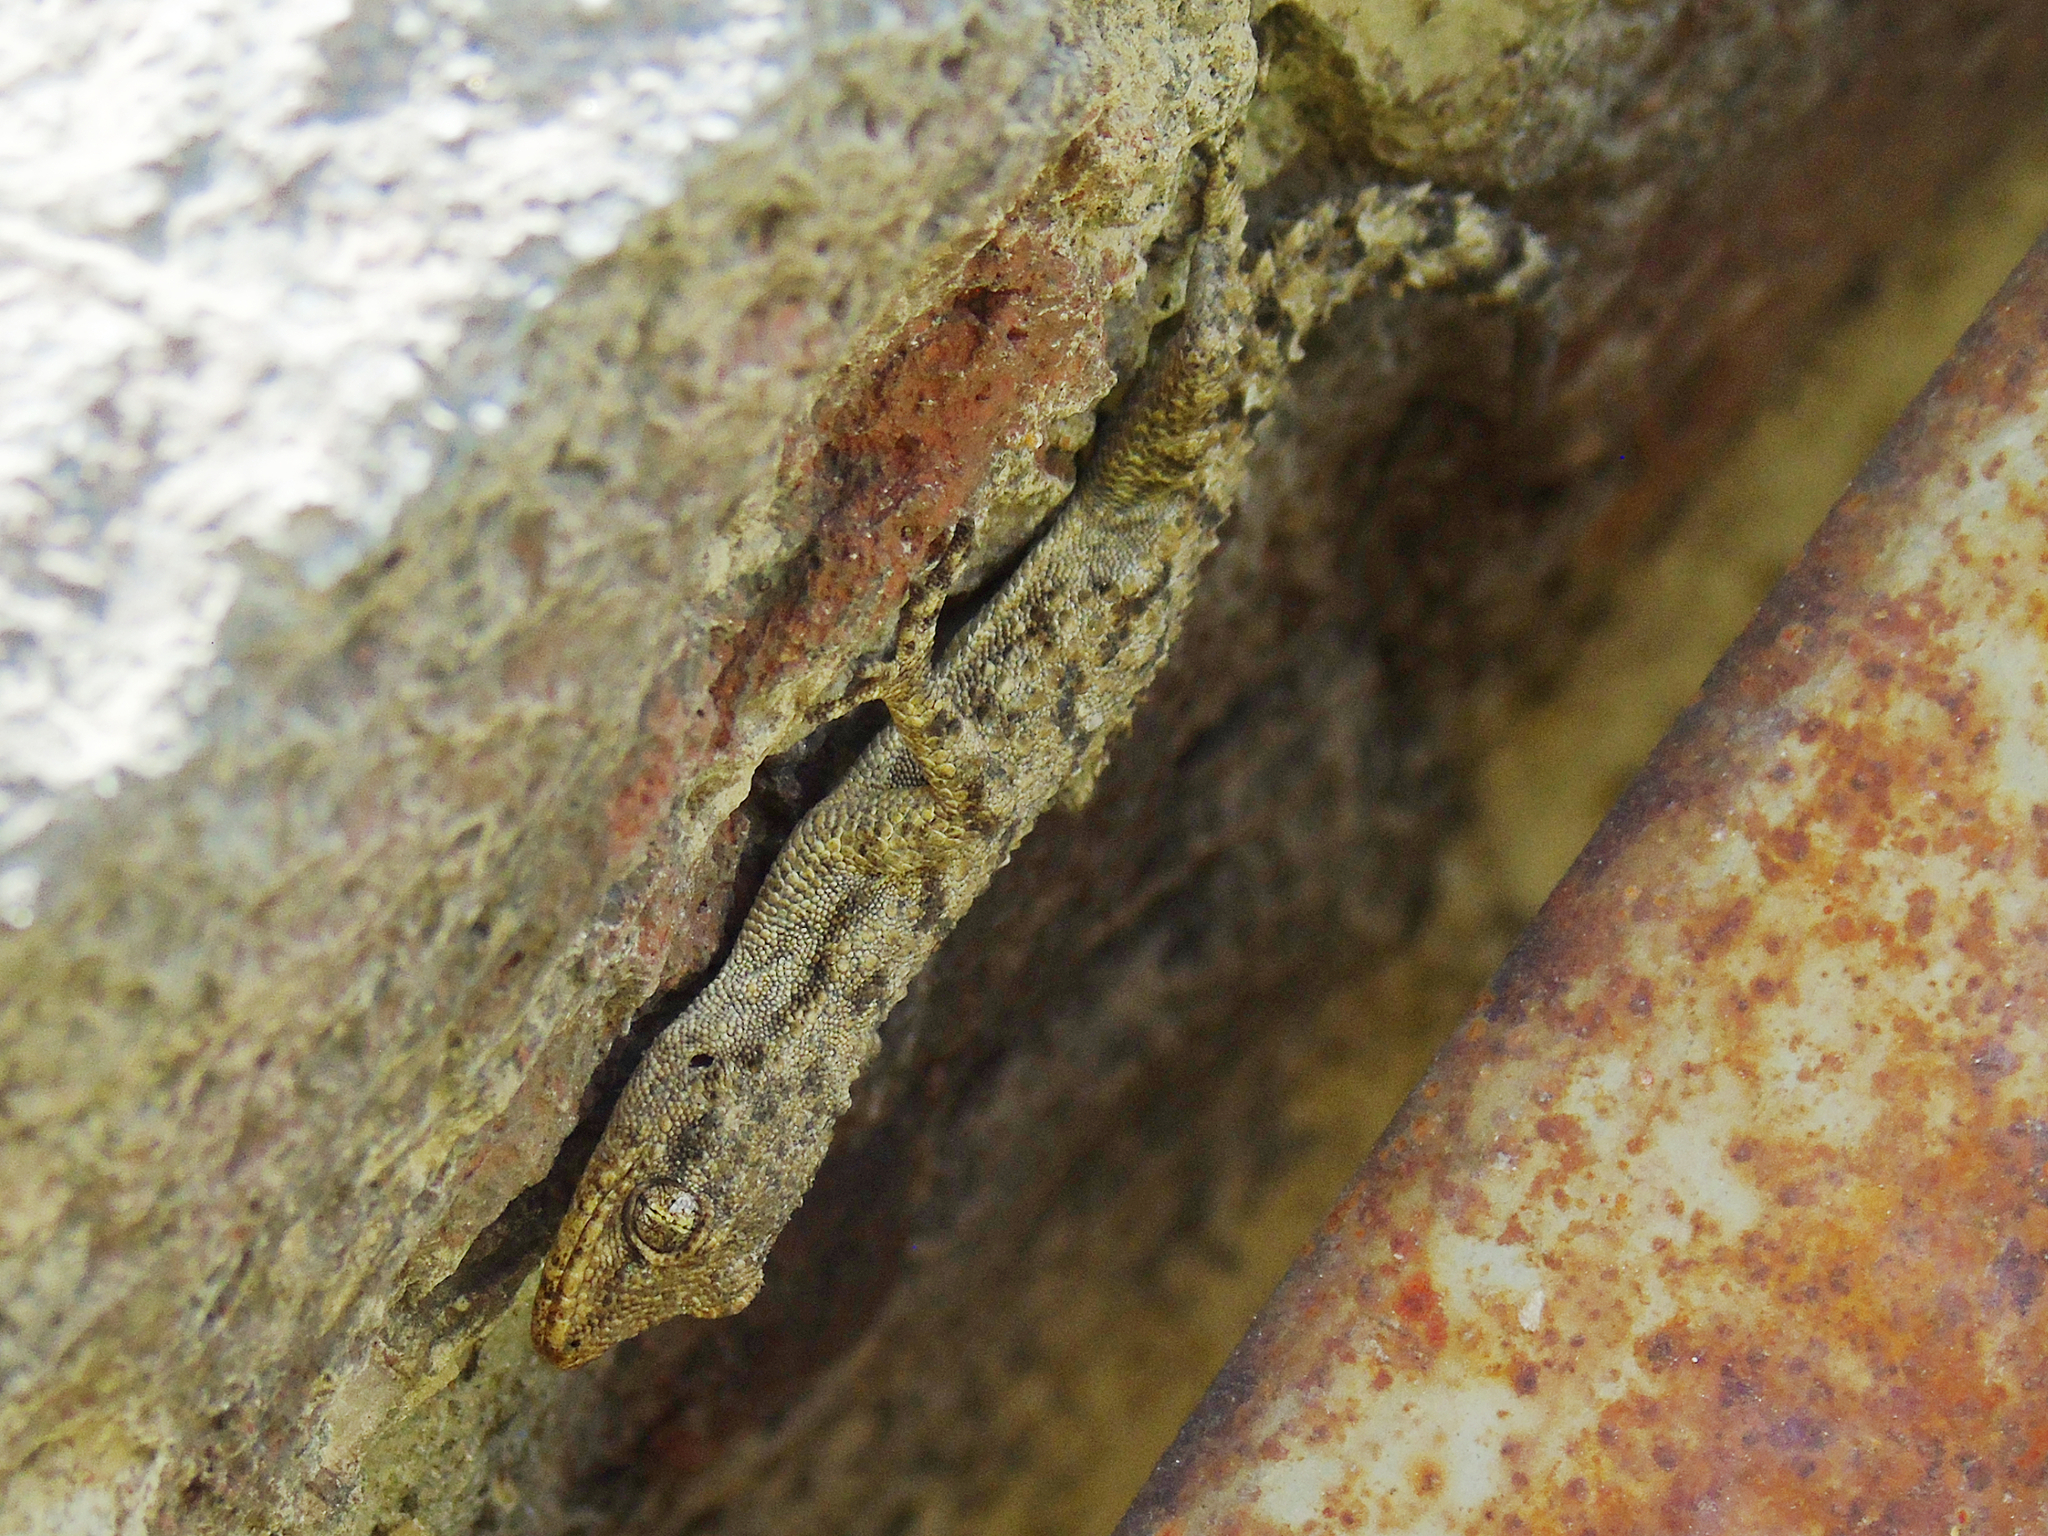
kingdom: Animalia
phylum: Chordata
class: Squamata
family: Gekkonidae
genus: Mediodactylus
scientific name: Mediodactylus kotschyi
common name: Kotschy's gecko
